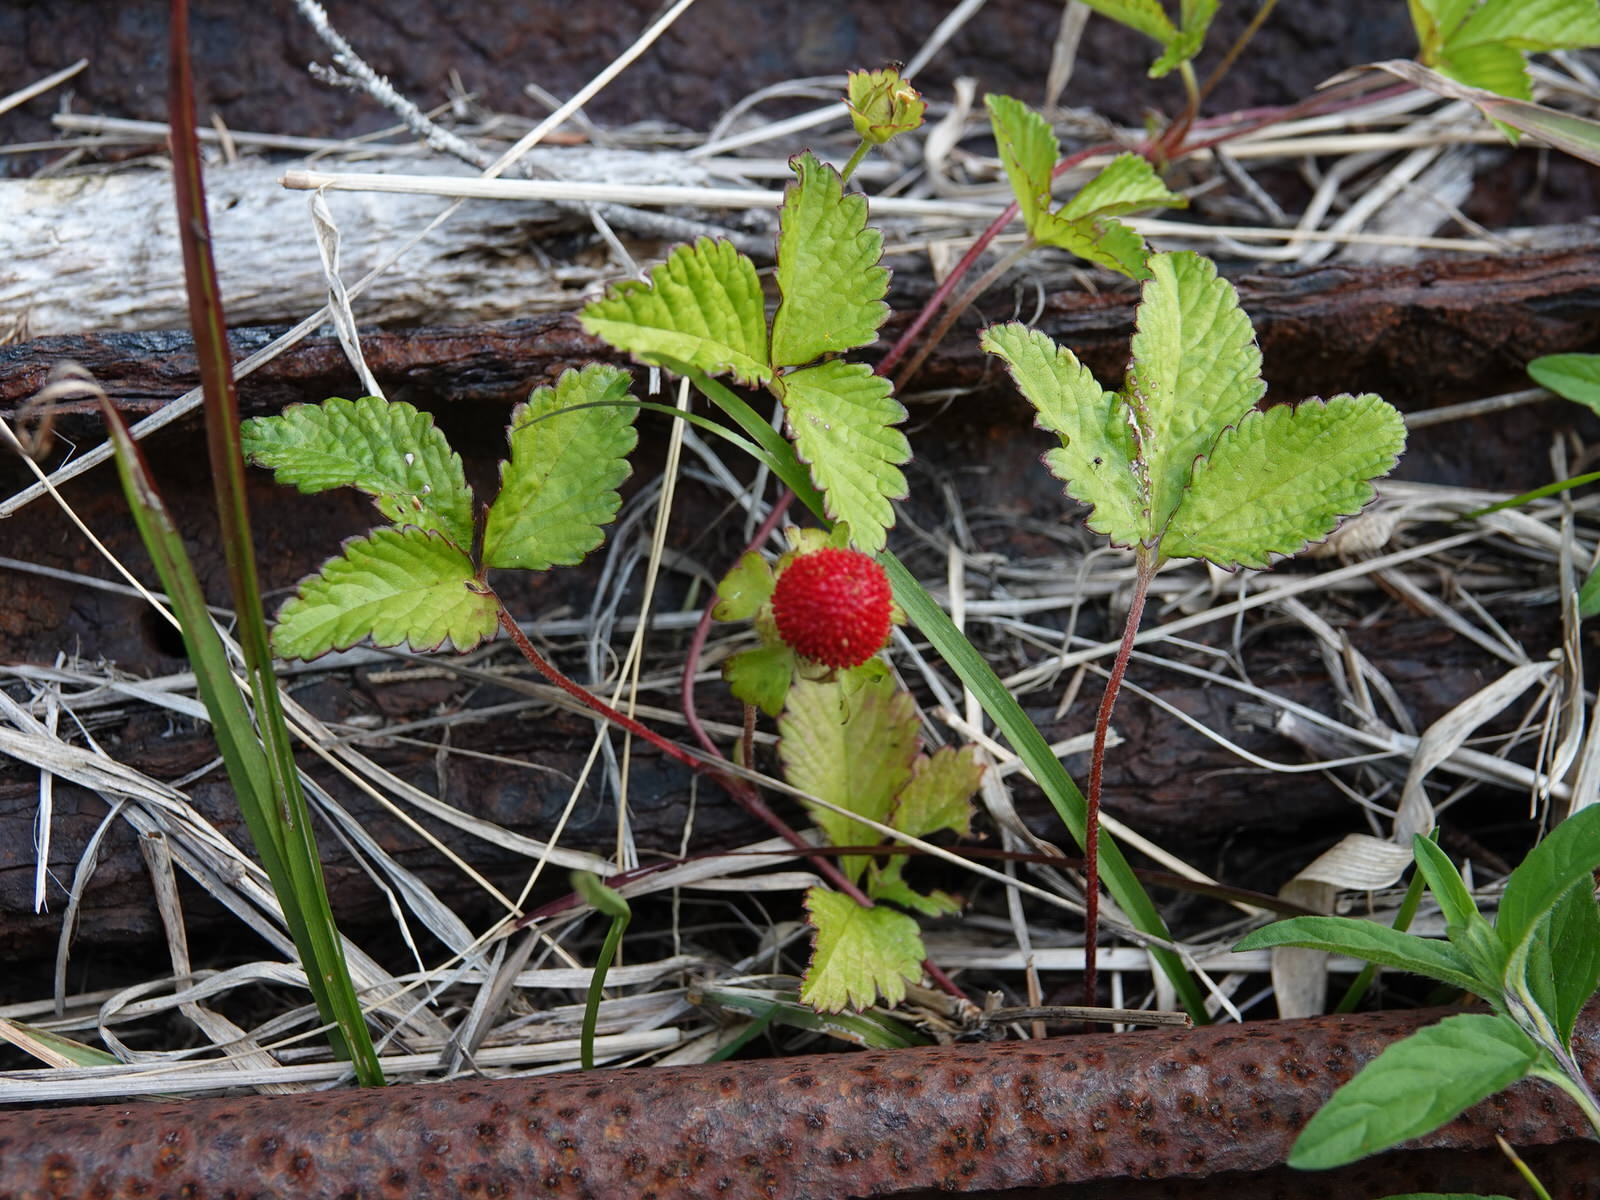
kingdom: Plantae
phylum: Tracheophyta
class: Magnoliopsida
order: Rosales
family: Rosaceae
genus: Potentilla
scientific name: Potentilla indica
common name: Yellow-flowered strawberry
